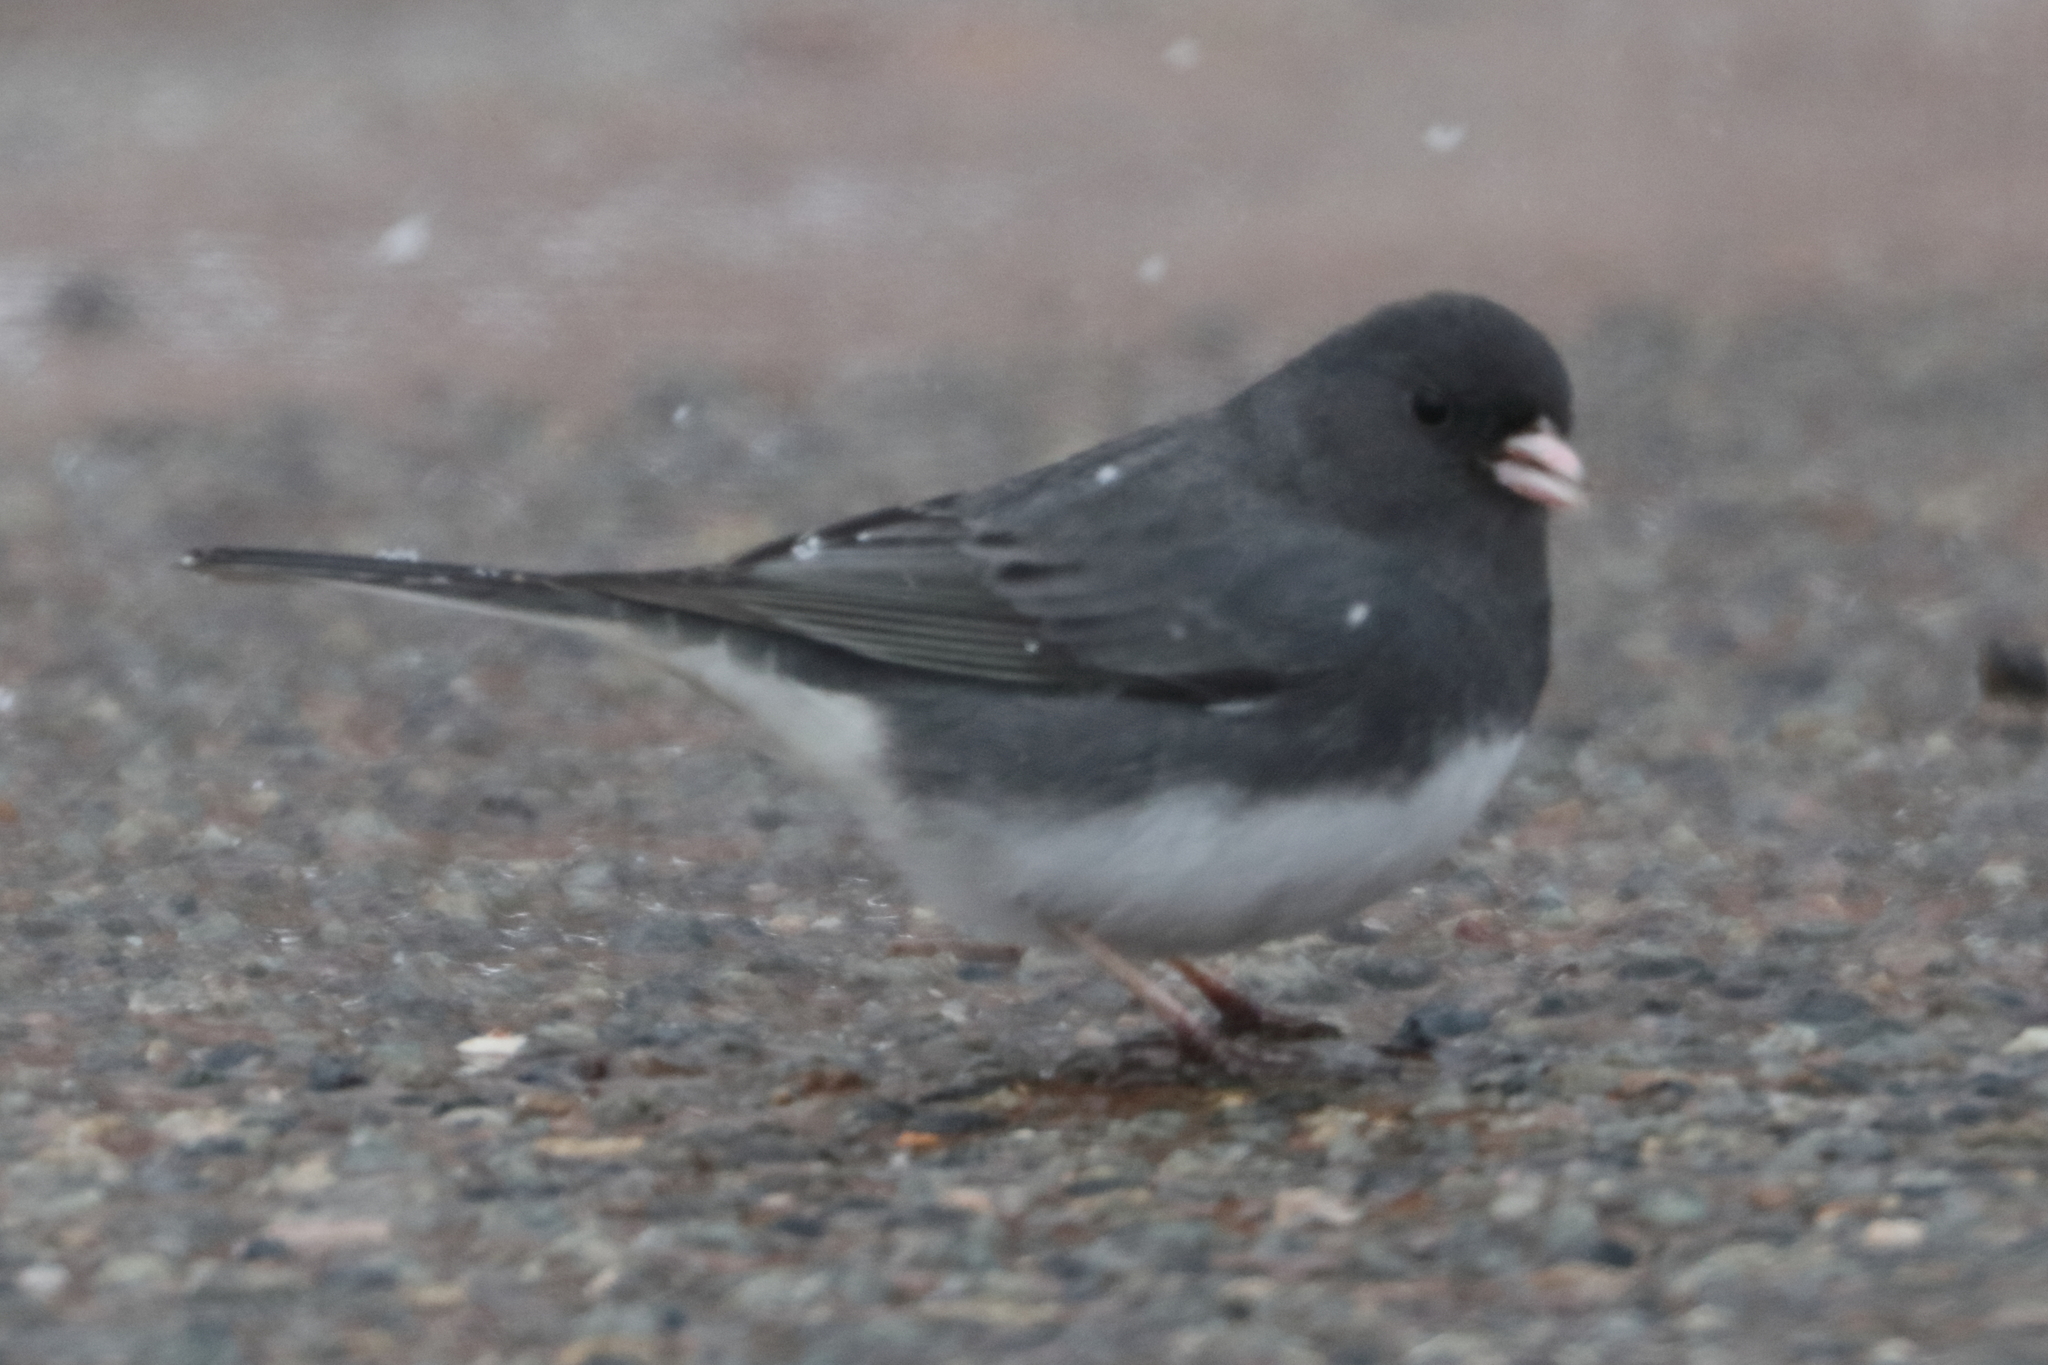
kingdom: Animalia
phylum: Chordata
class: Aves
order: Passeriformes
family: Passerellidae
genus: Junco
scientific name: Junco hyemalis
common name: Dark-eyed junco
